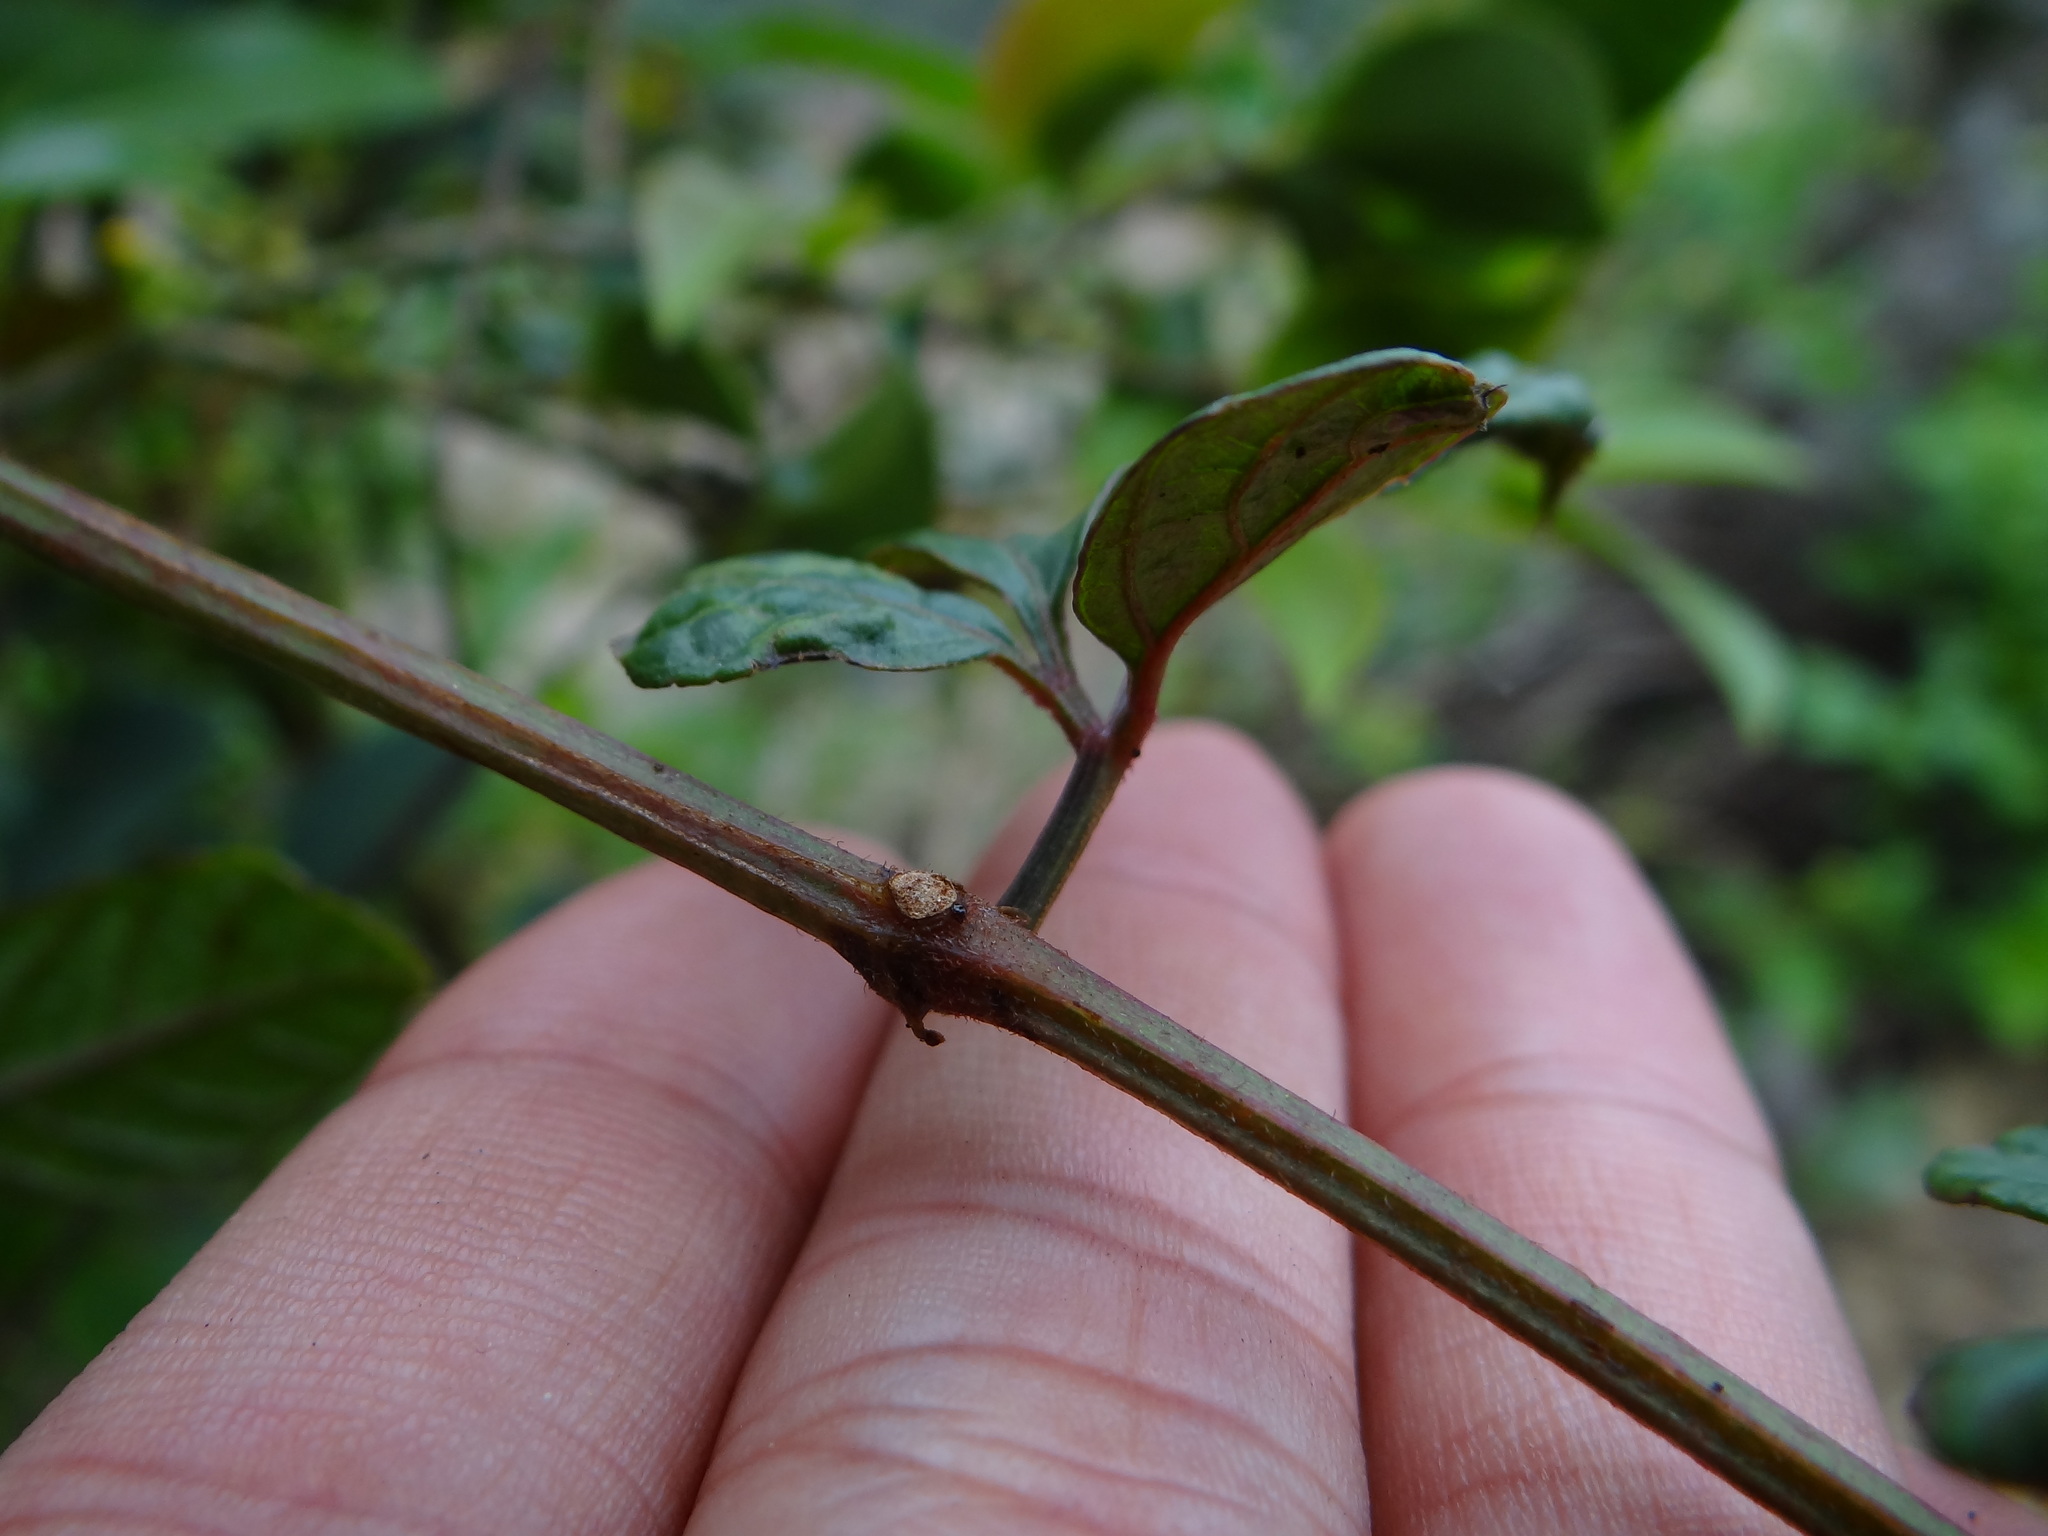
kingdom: Plantae
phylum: Tracheophyta
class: Magnoliopsida
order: Vitales
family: Vitaceae
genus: Causonis
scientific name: Causonis japonica
